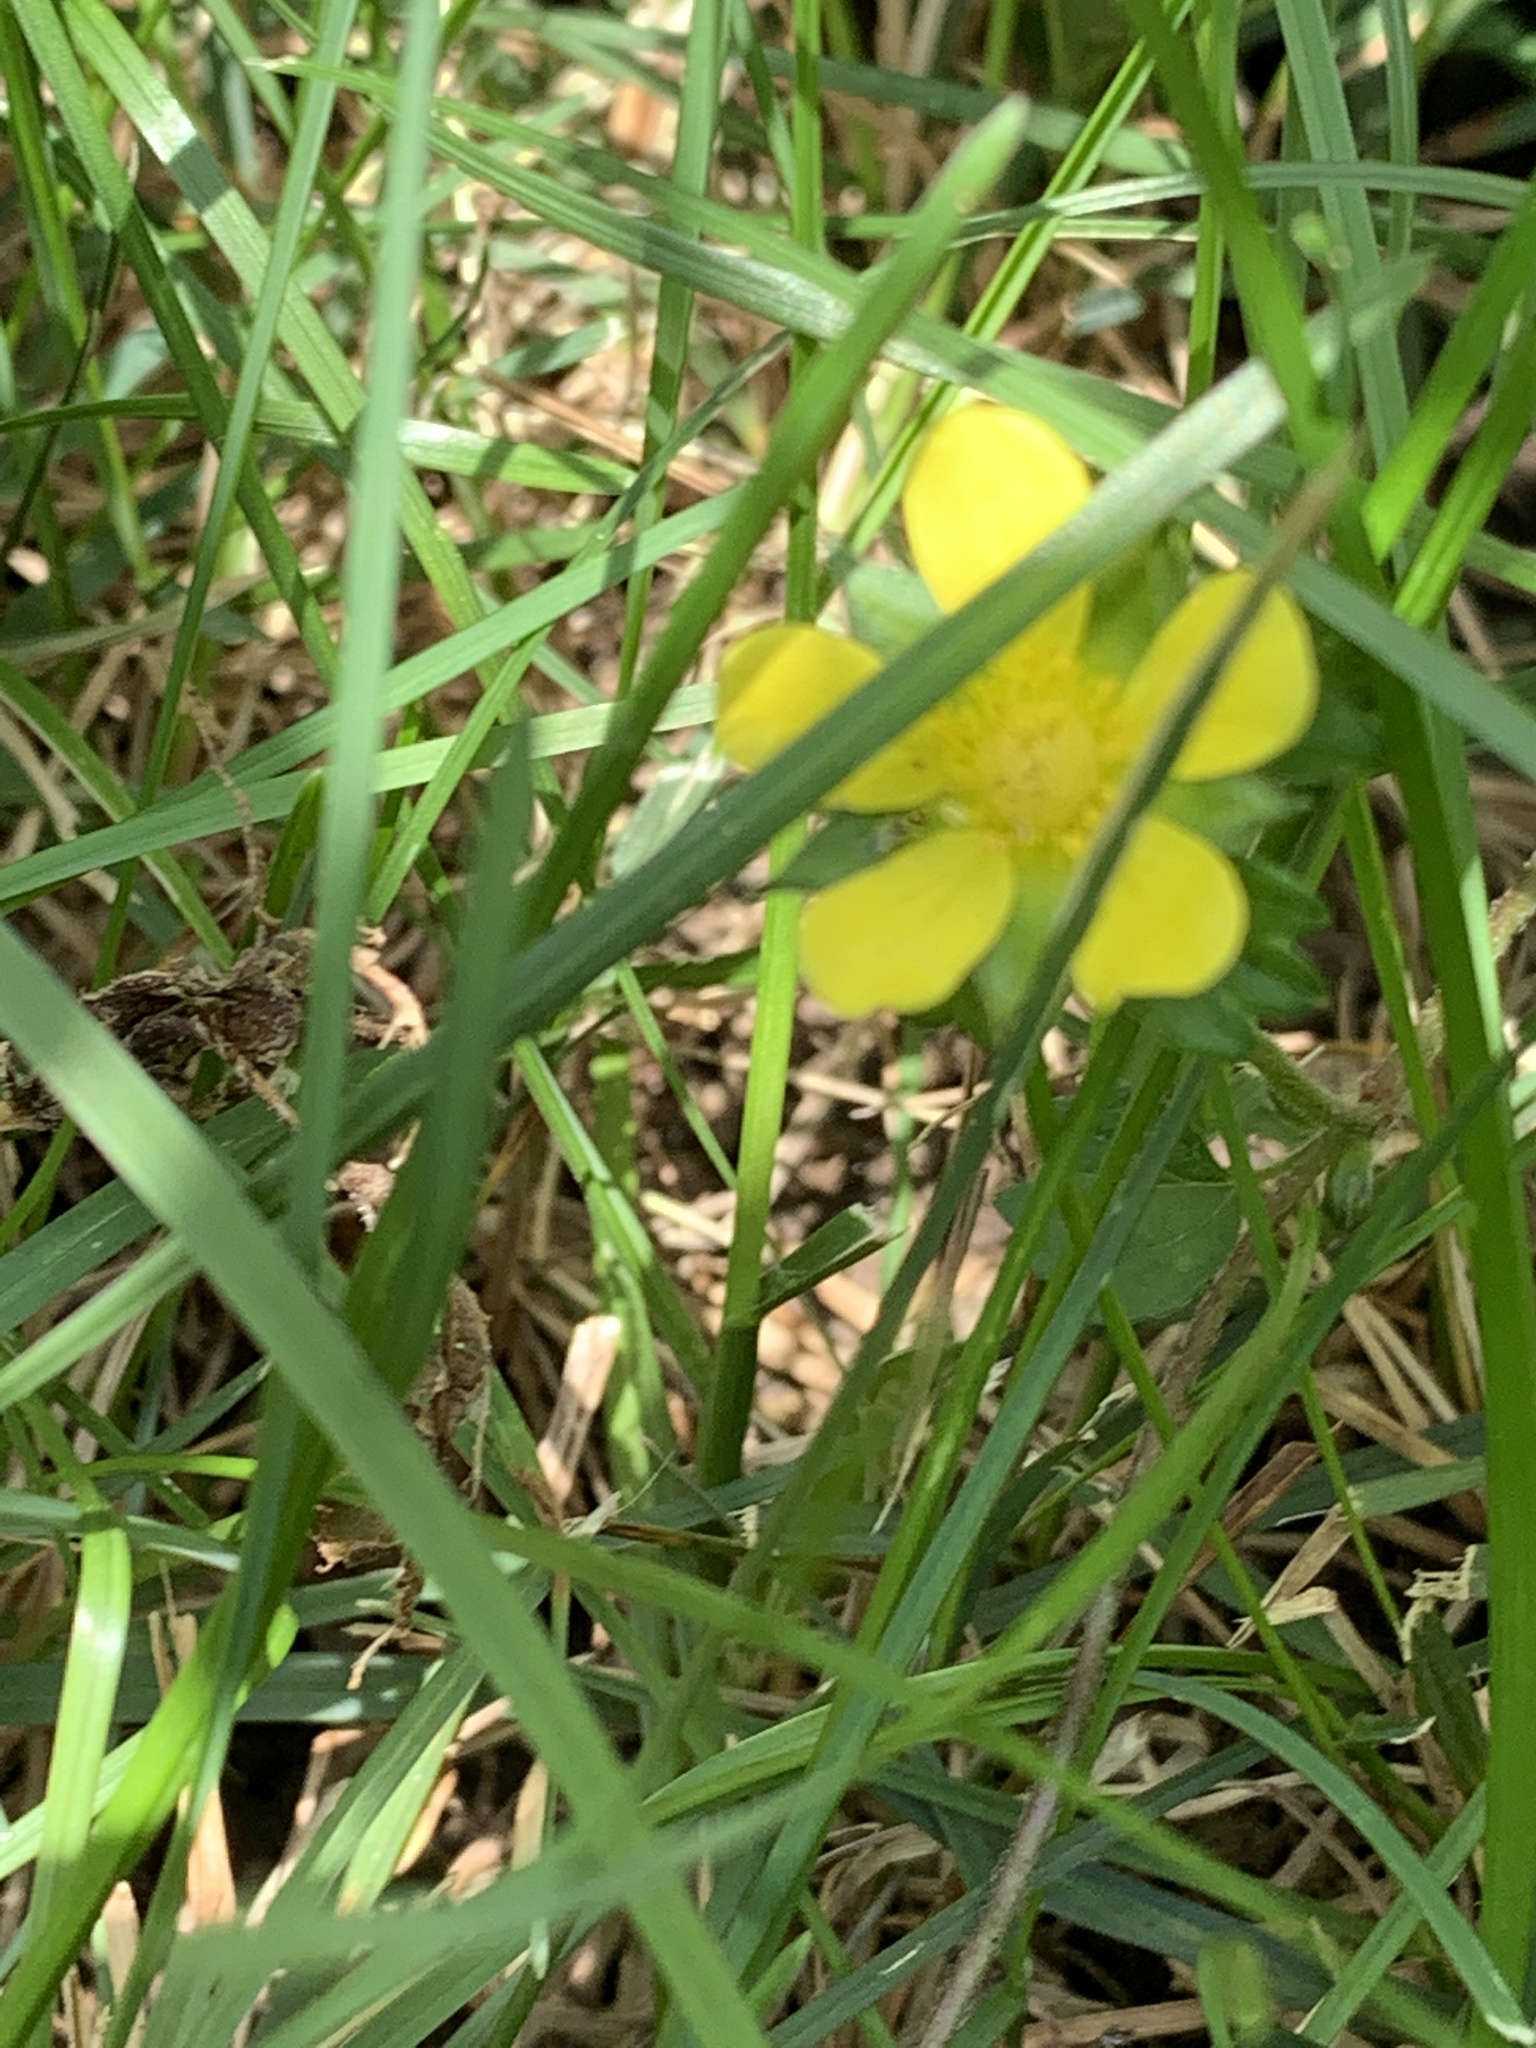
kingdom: Plantae
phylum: Tracheophyta
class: Magnoliopsida
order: Rosales
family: Rosaceae
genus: Potentilla
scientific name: Potentilla indica
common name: Yellow-flowered strawberry
